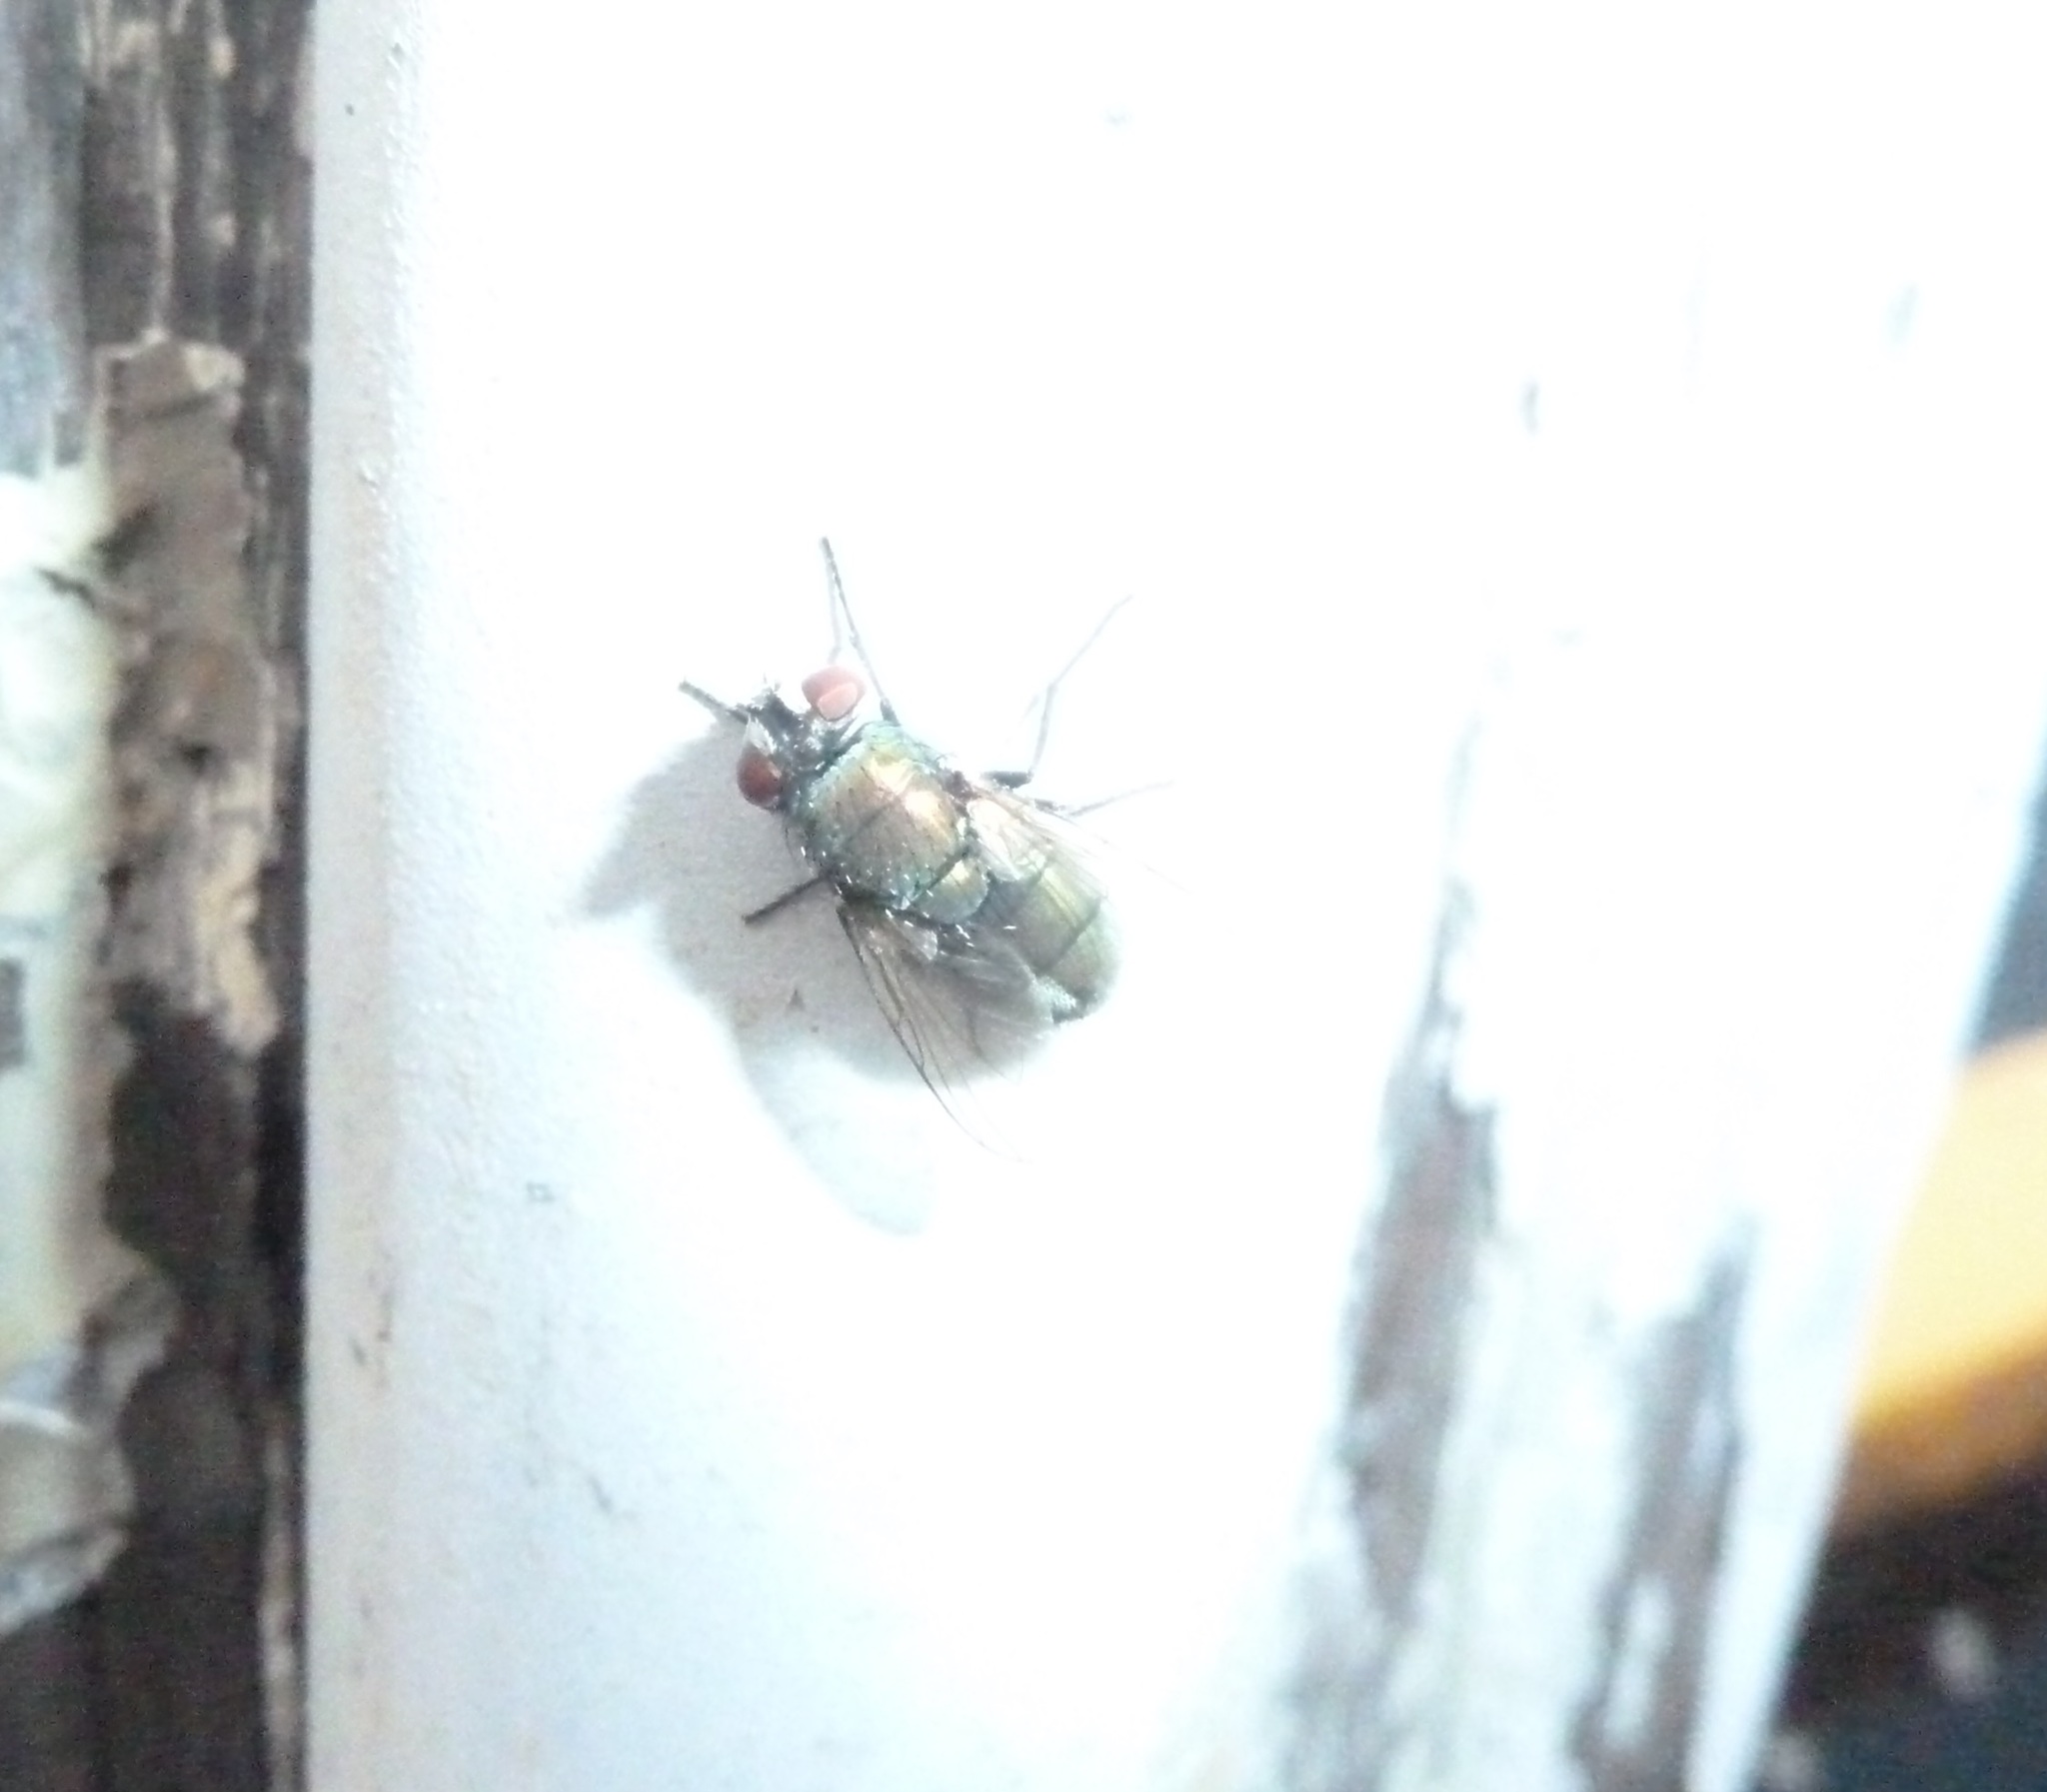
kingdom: Animalia
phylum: Arthropoda
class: Insecta
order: Diptera
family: Calliphoridae
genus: Lucilia
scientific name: Lucilia cuprina
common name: Sheep blow fly
